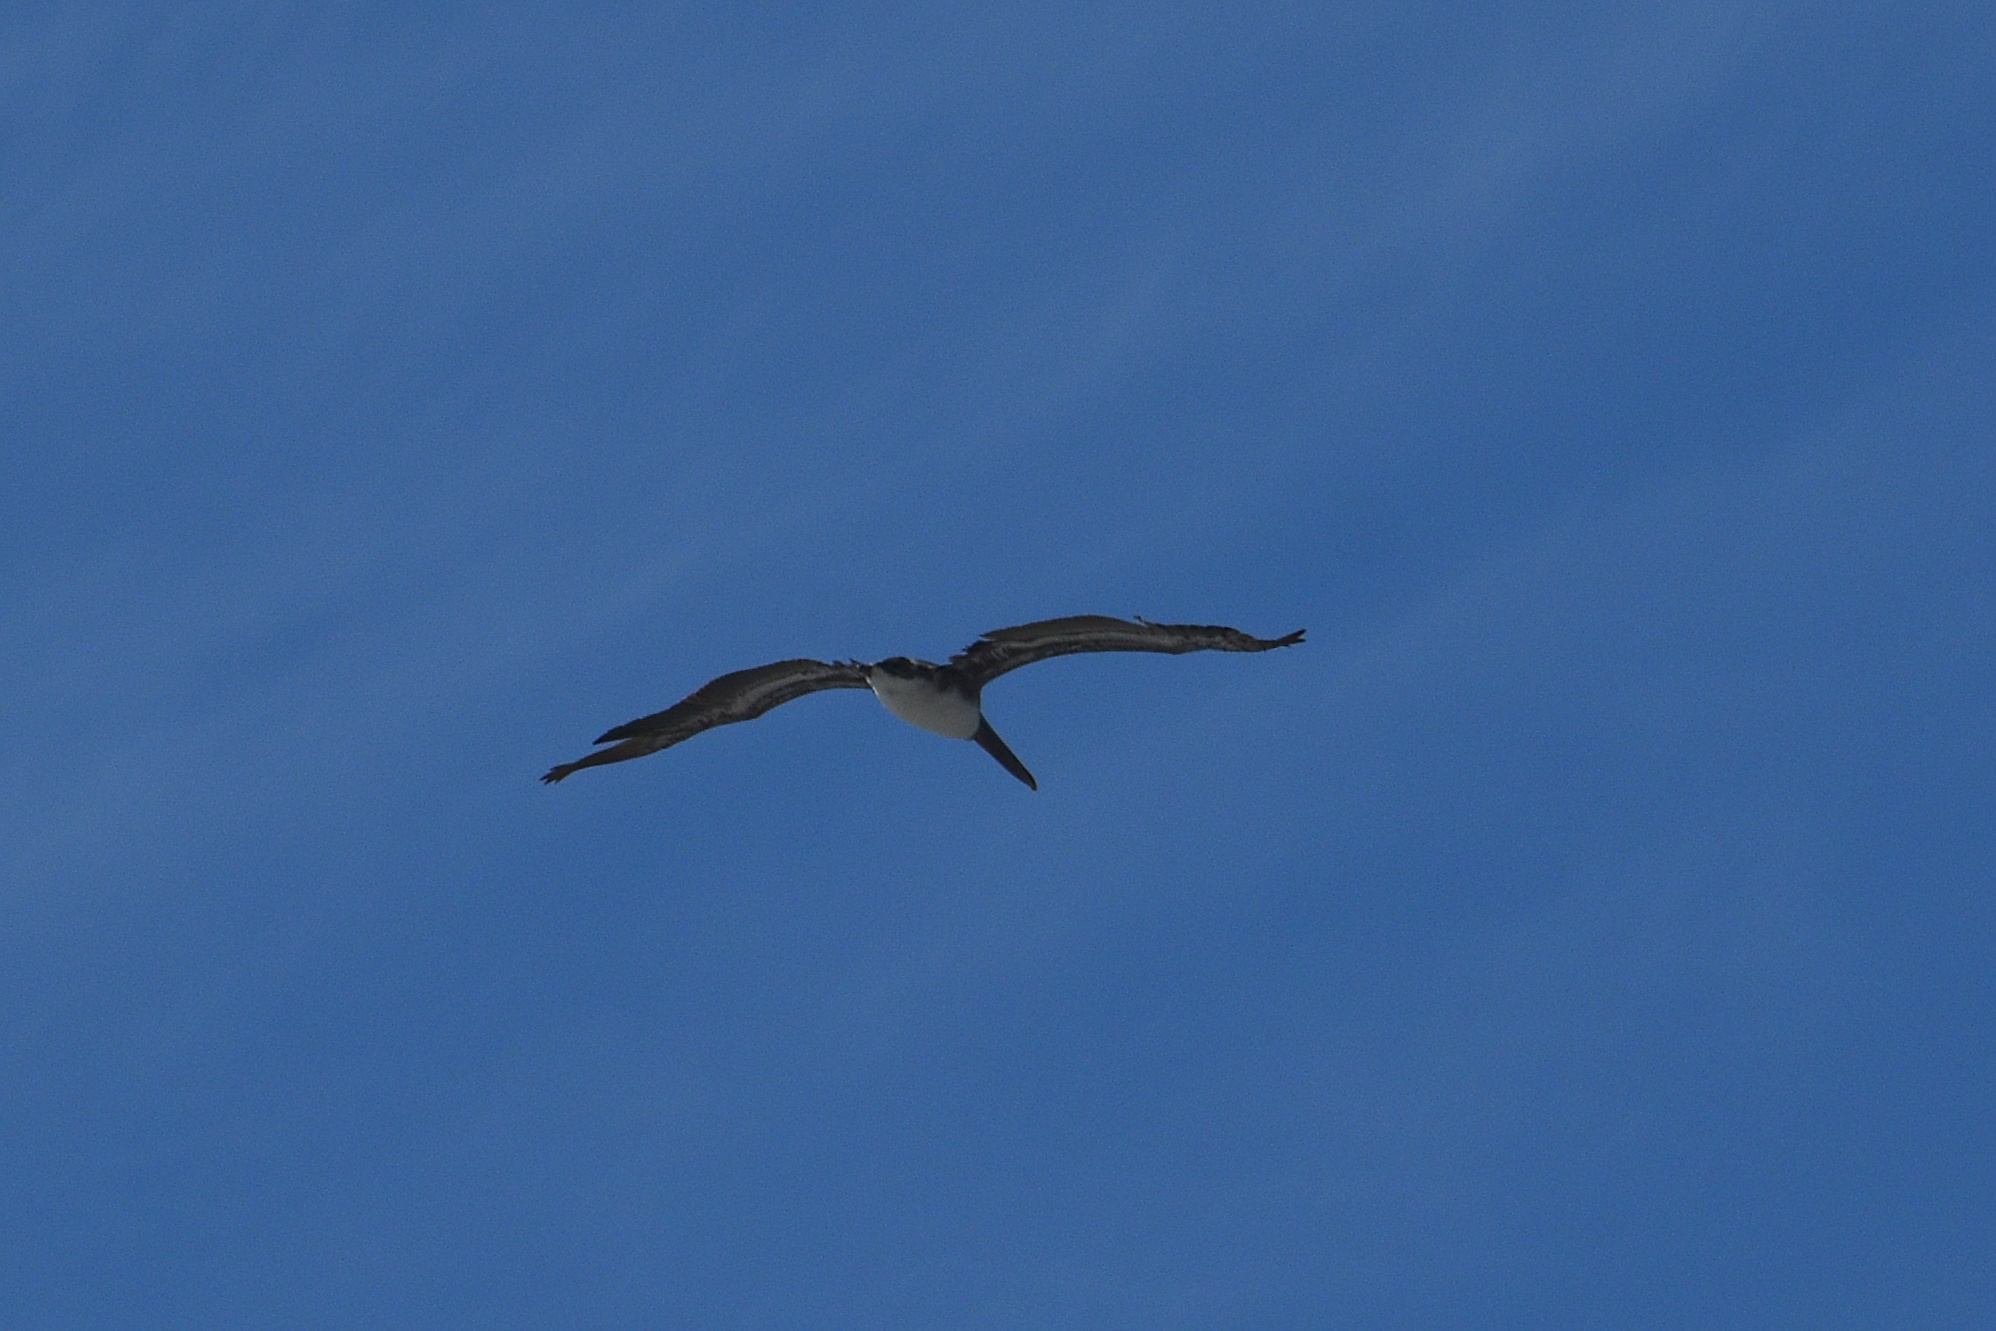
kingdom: Animalia
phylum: Chordata
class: Aves
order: Pelecaniformes
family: Pelecanidae
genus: Pelecanus
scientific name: Pelecanus occidentalis
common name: Brown pelican
